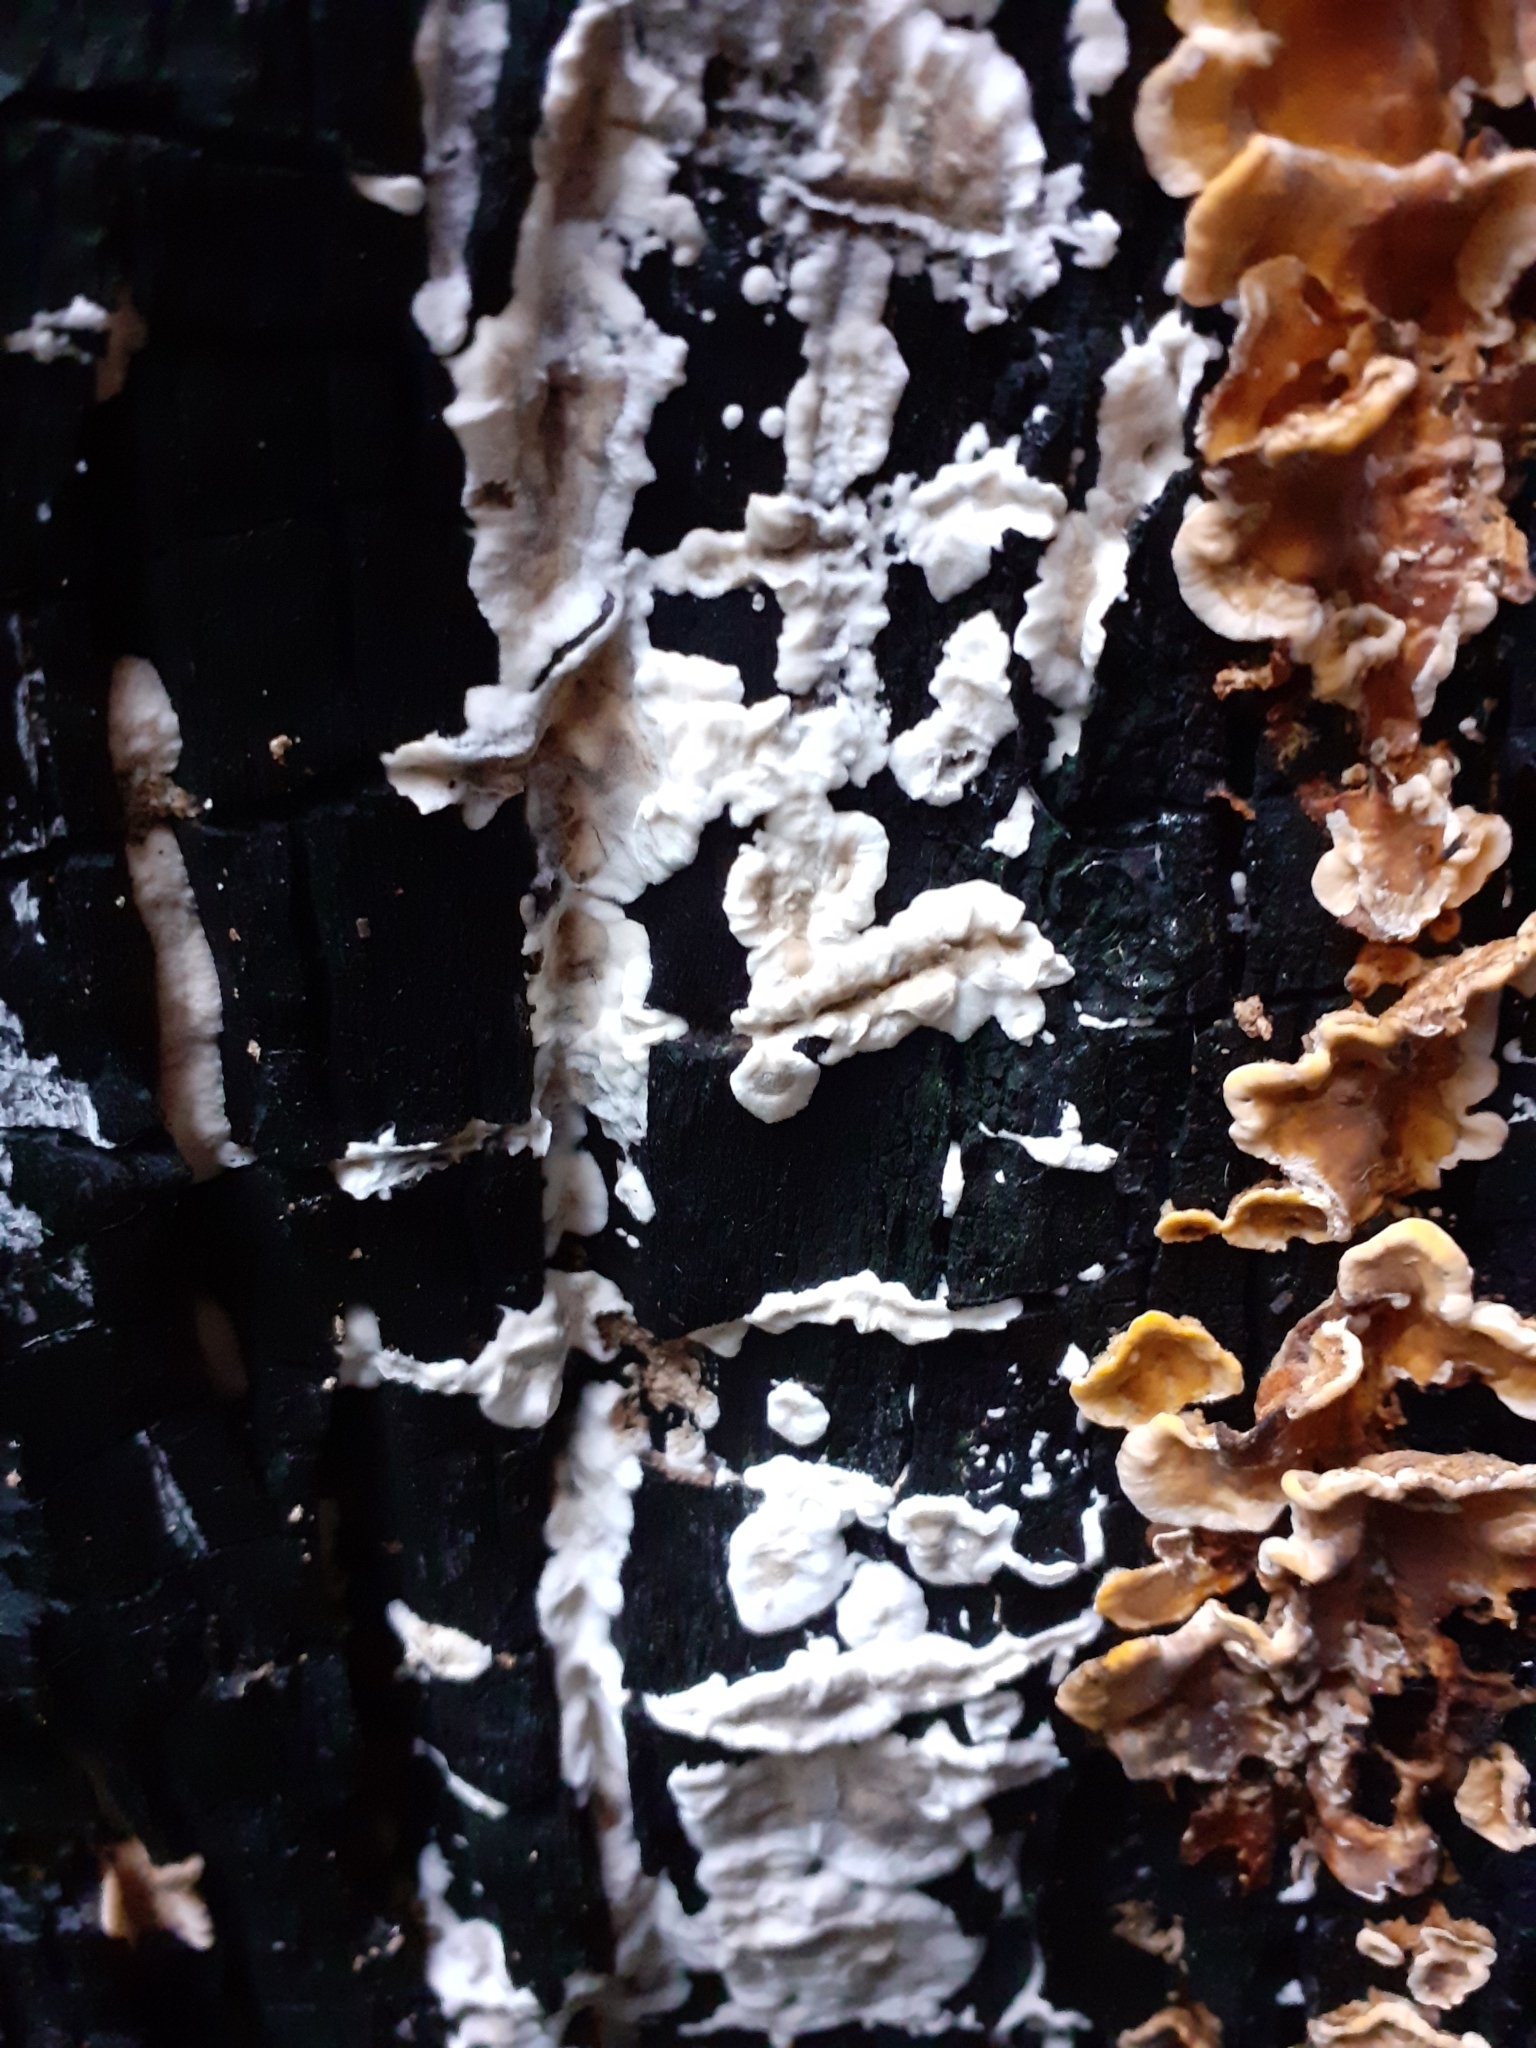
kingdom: Fungi
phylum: Basidiomycota
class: Agaricomycetes
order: Polyporales
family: Phanerochaetaceae
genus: Bjerkandera
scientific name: Bjerkandera adusta
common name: Smoky bracket
